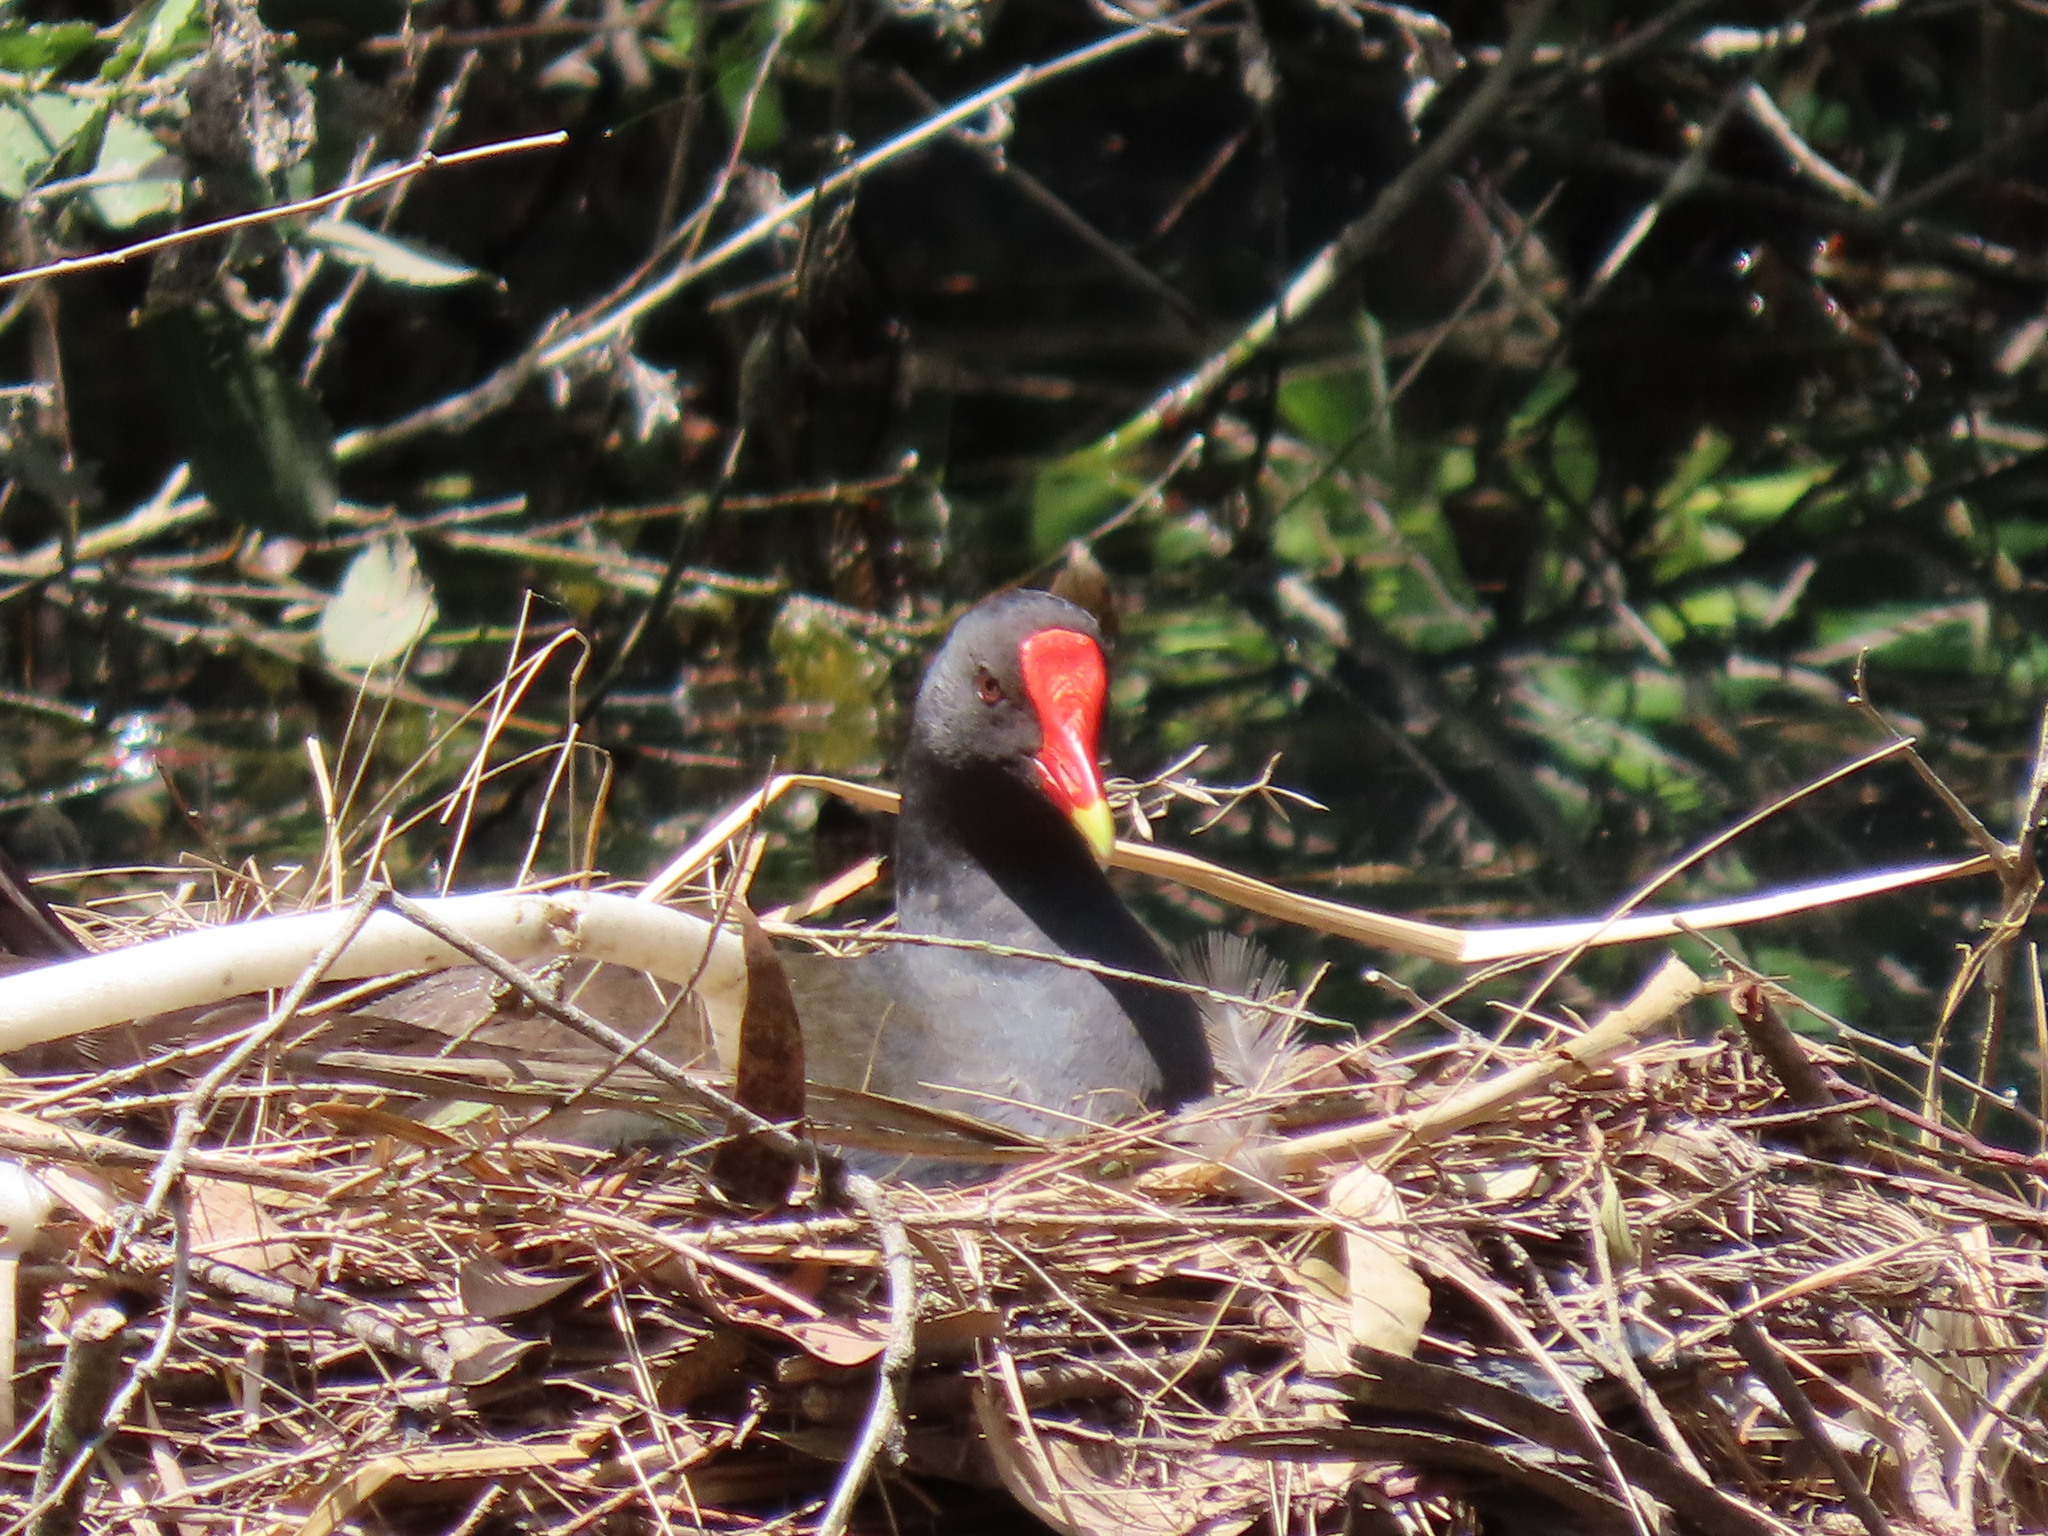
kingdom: Animalia
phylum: Chordata
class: Aves
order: Gruiformes
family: Rallidae
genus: Gallinula
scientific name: Gallinula tenebrosa
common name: Dusky moorhen
